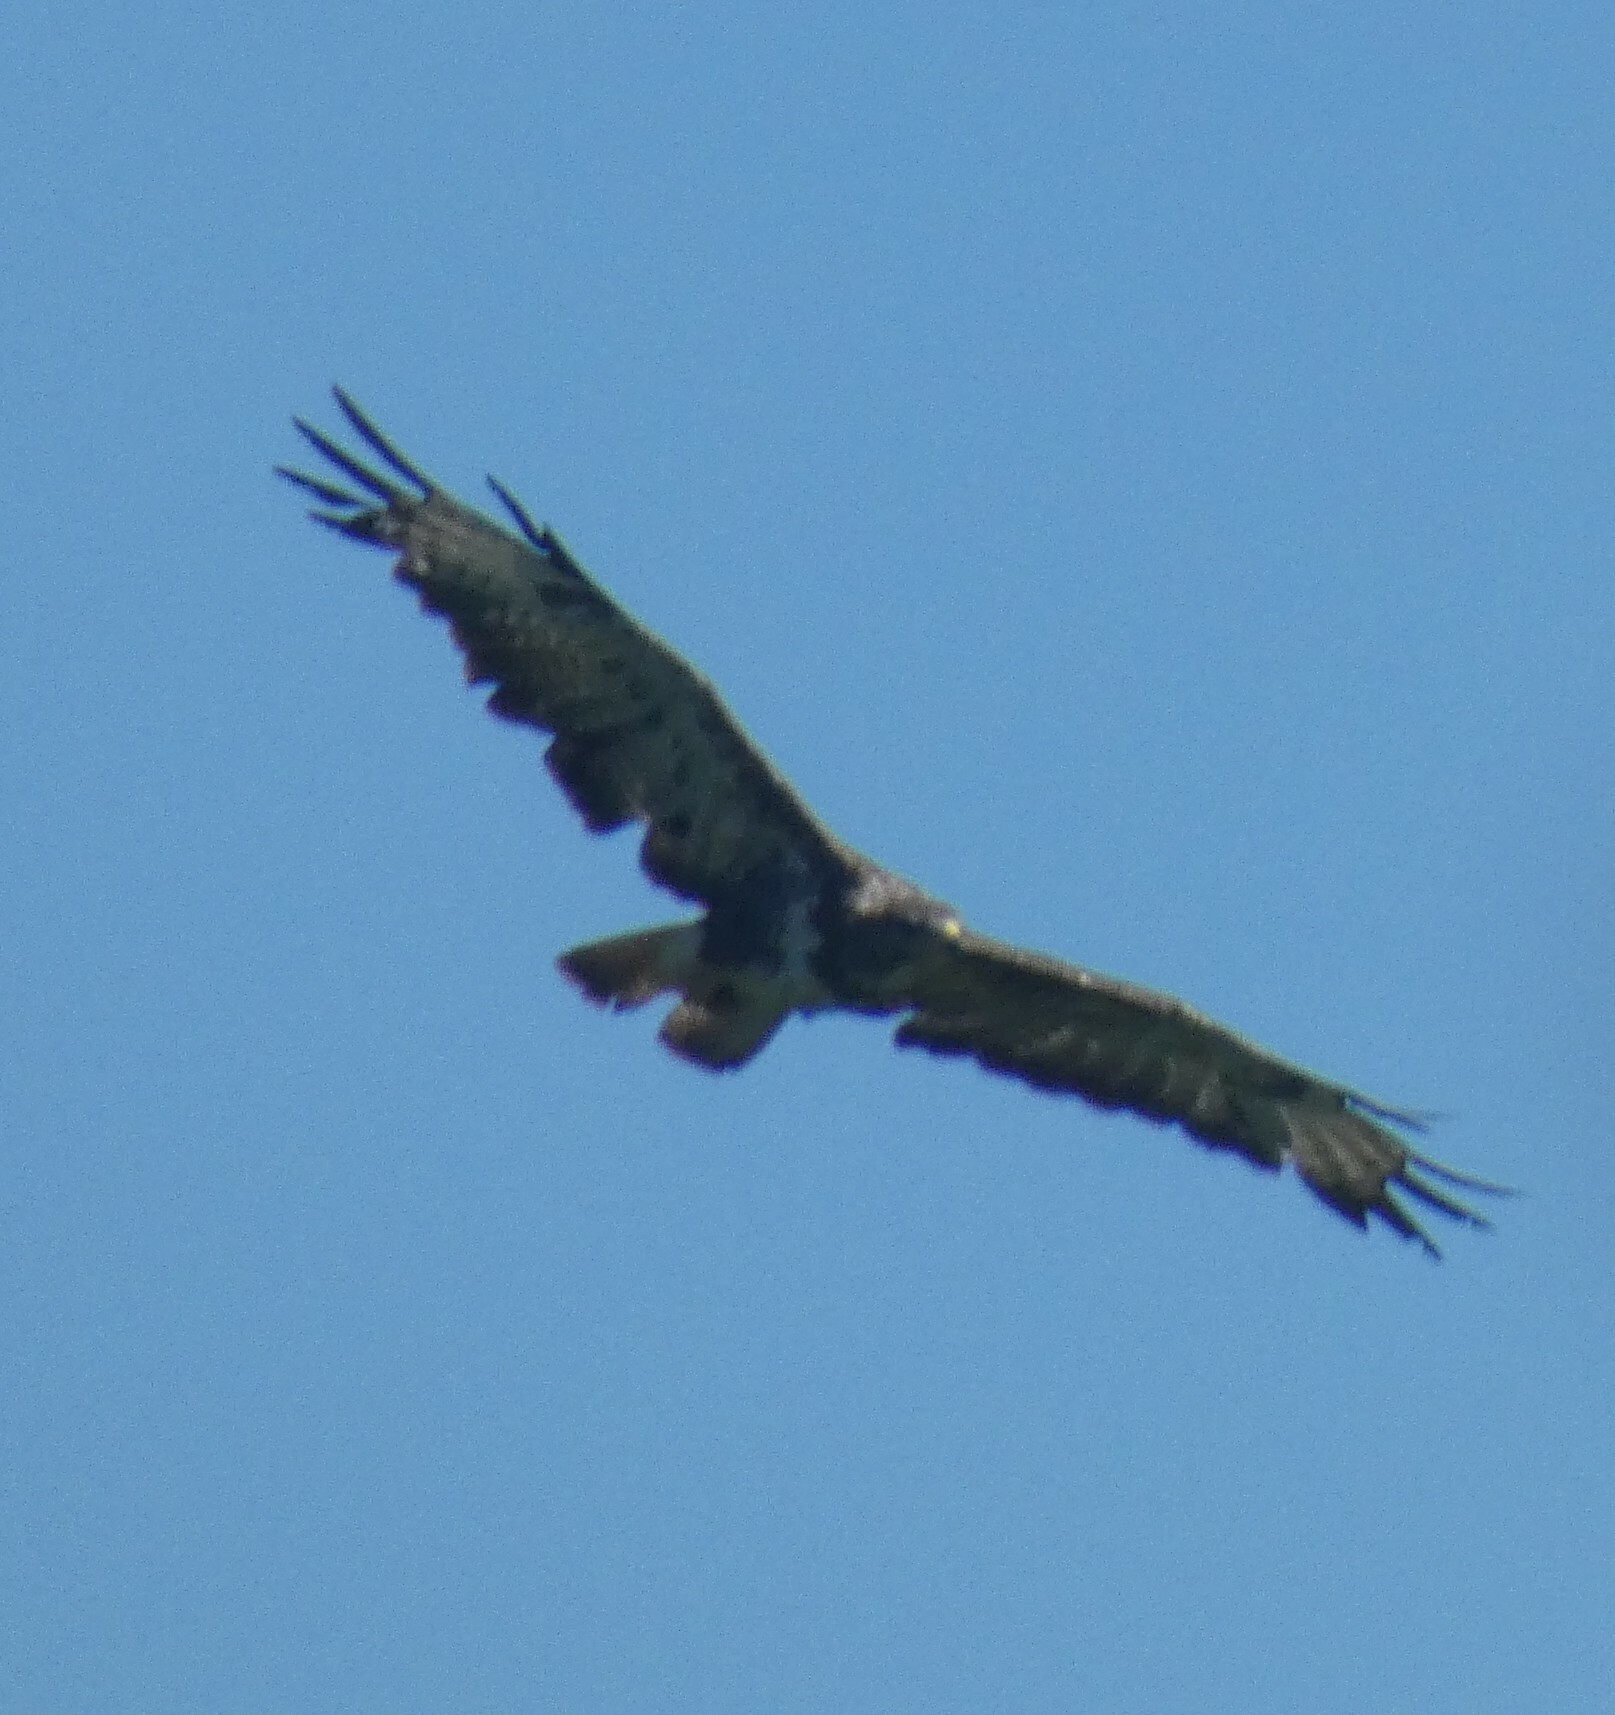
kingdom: Animalia
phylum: Chordata
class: Aves
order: Accipitriformes
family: Accipitridae
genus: Buteo
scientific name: Buteo buteo
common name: Common buzzard
